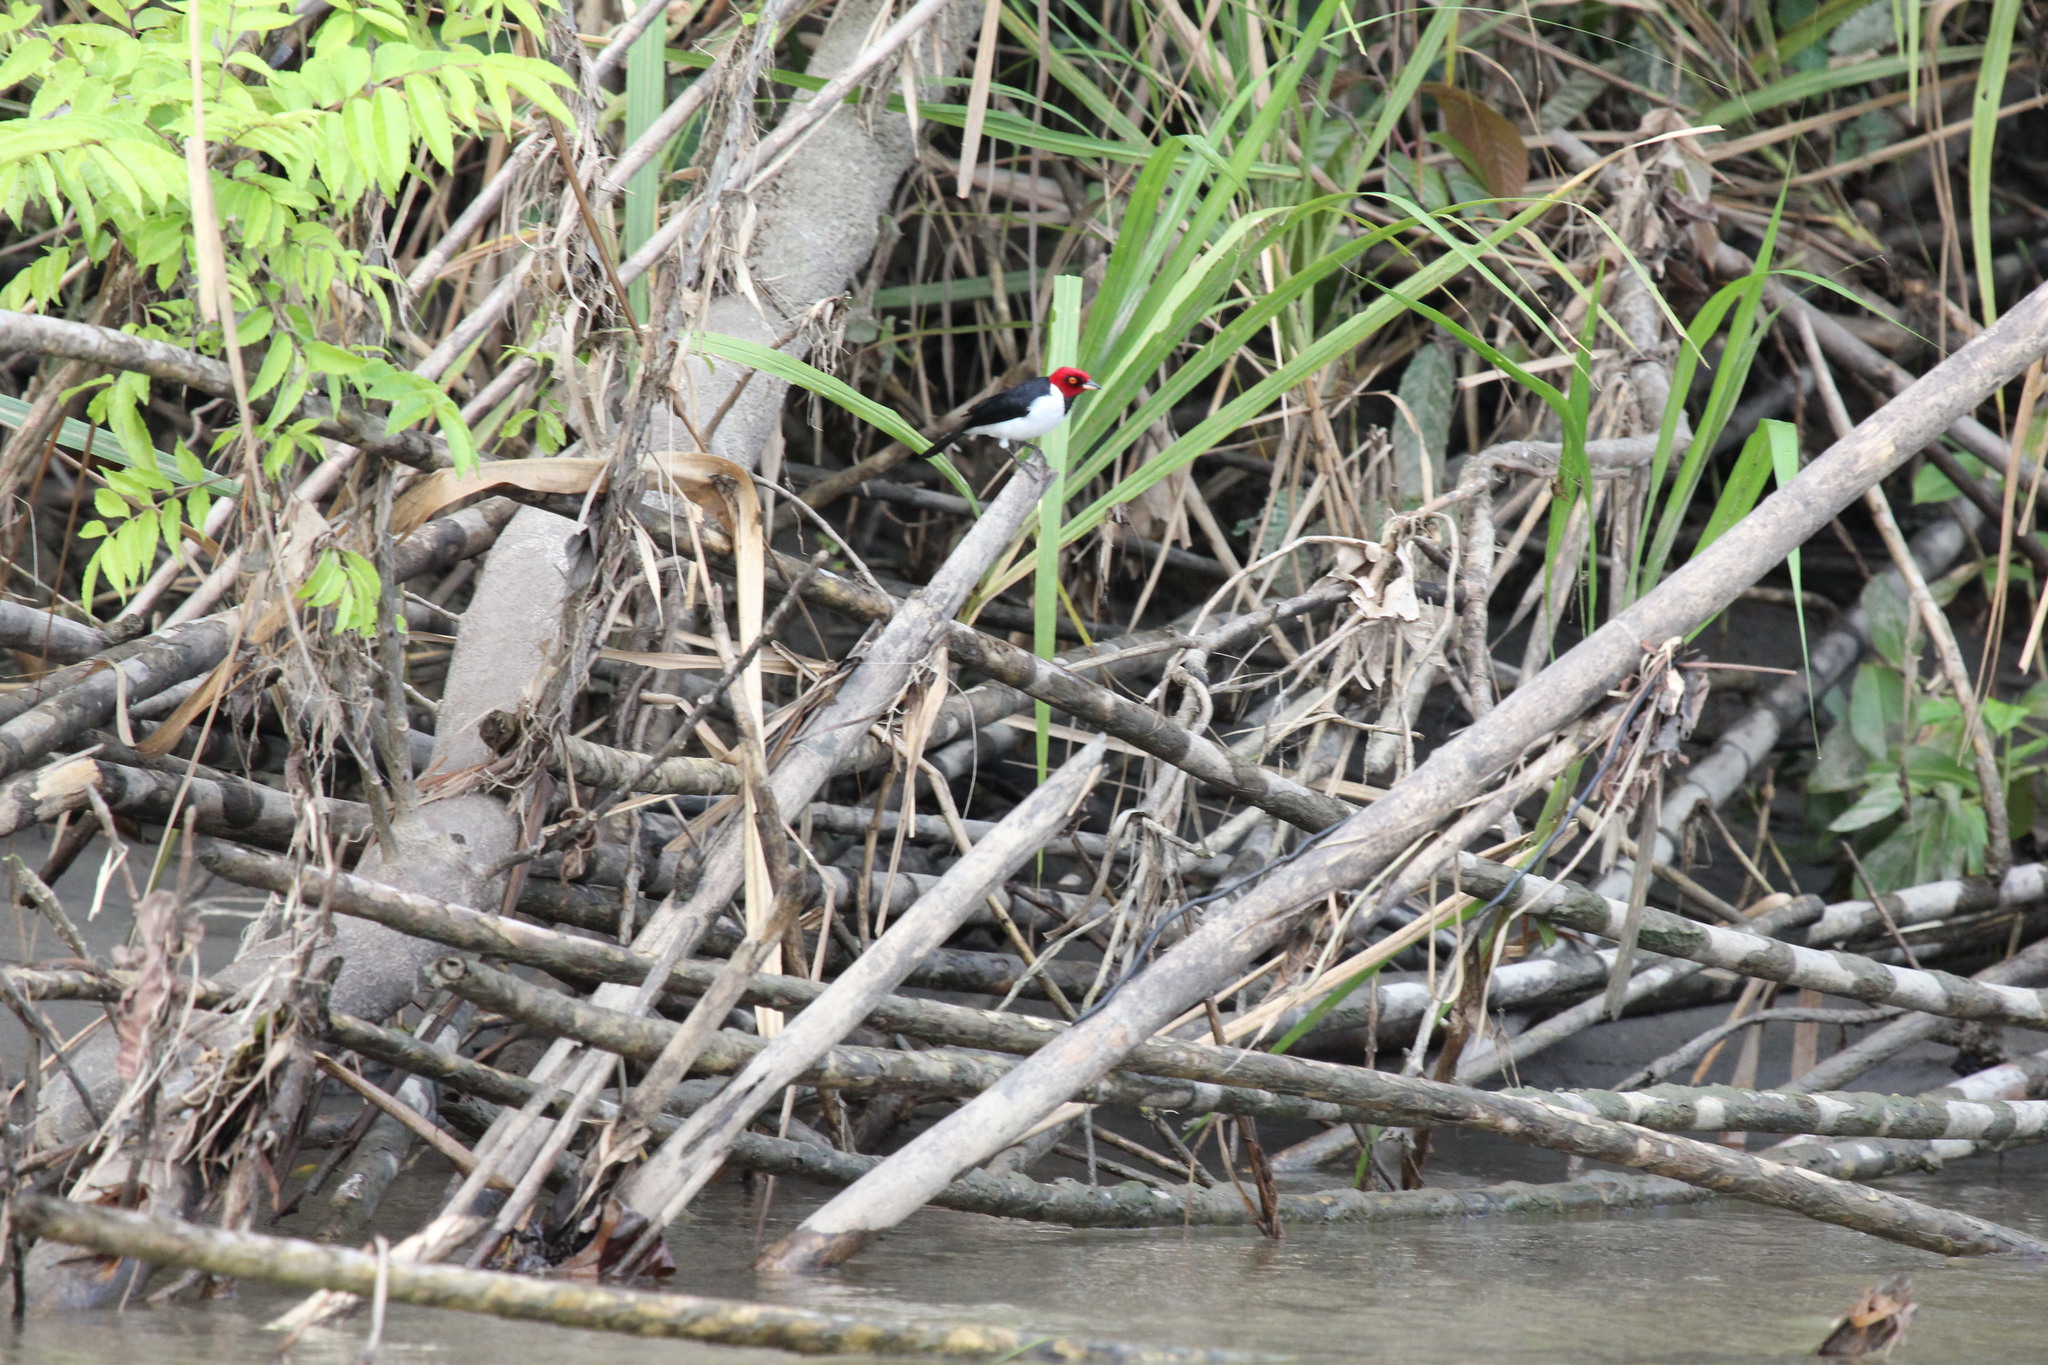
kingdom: Animalia
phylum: Chordata
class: Aves
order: Passeriformes
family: Thraupidae
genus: Paroaria
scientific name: Paroaria gularis
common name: Red-capped cardinal
